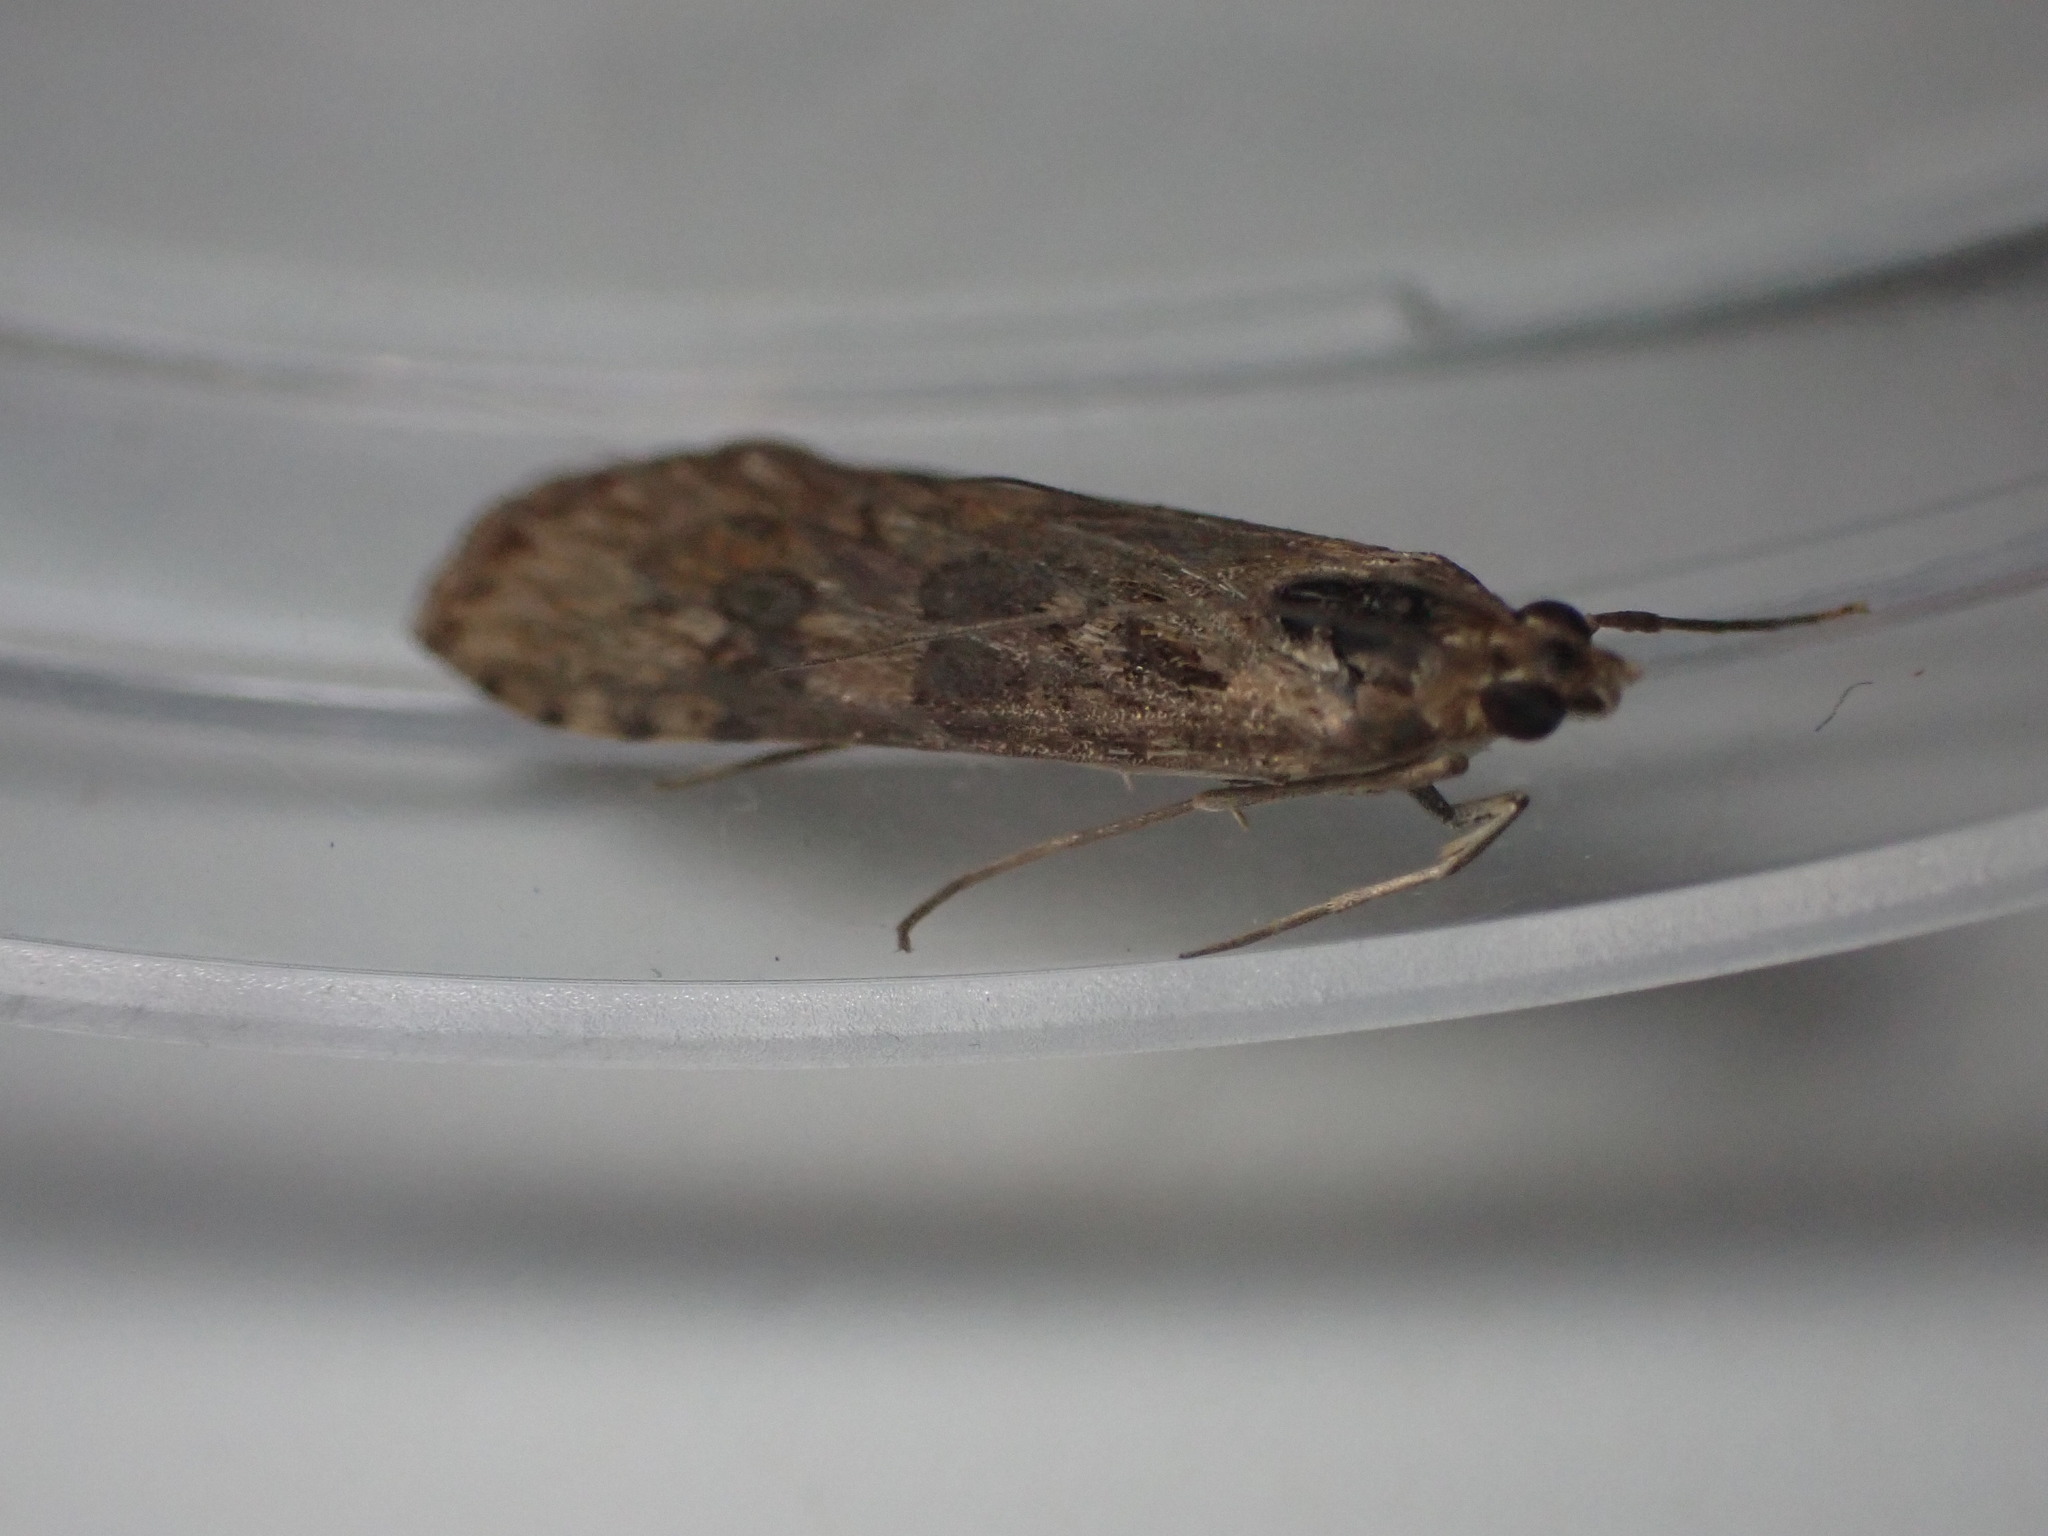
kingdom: Animalia
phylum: Arthropoda
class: Insecta
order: Lepidoptera
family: Crambidae
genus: Nomophila
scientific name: Nomophila noctuella
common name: Rush veneer
